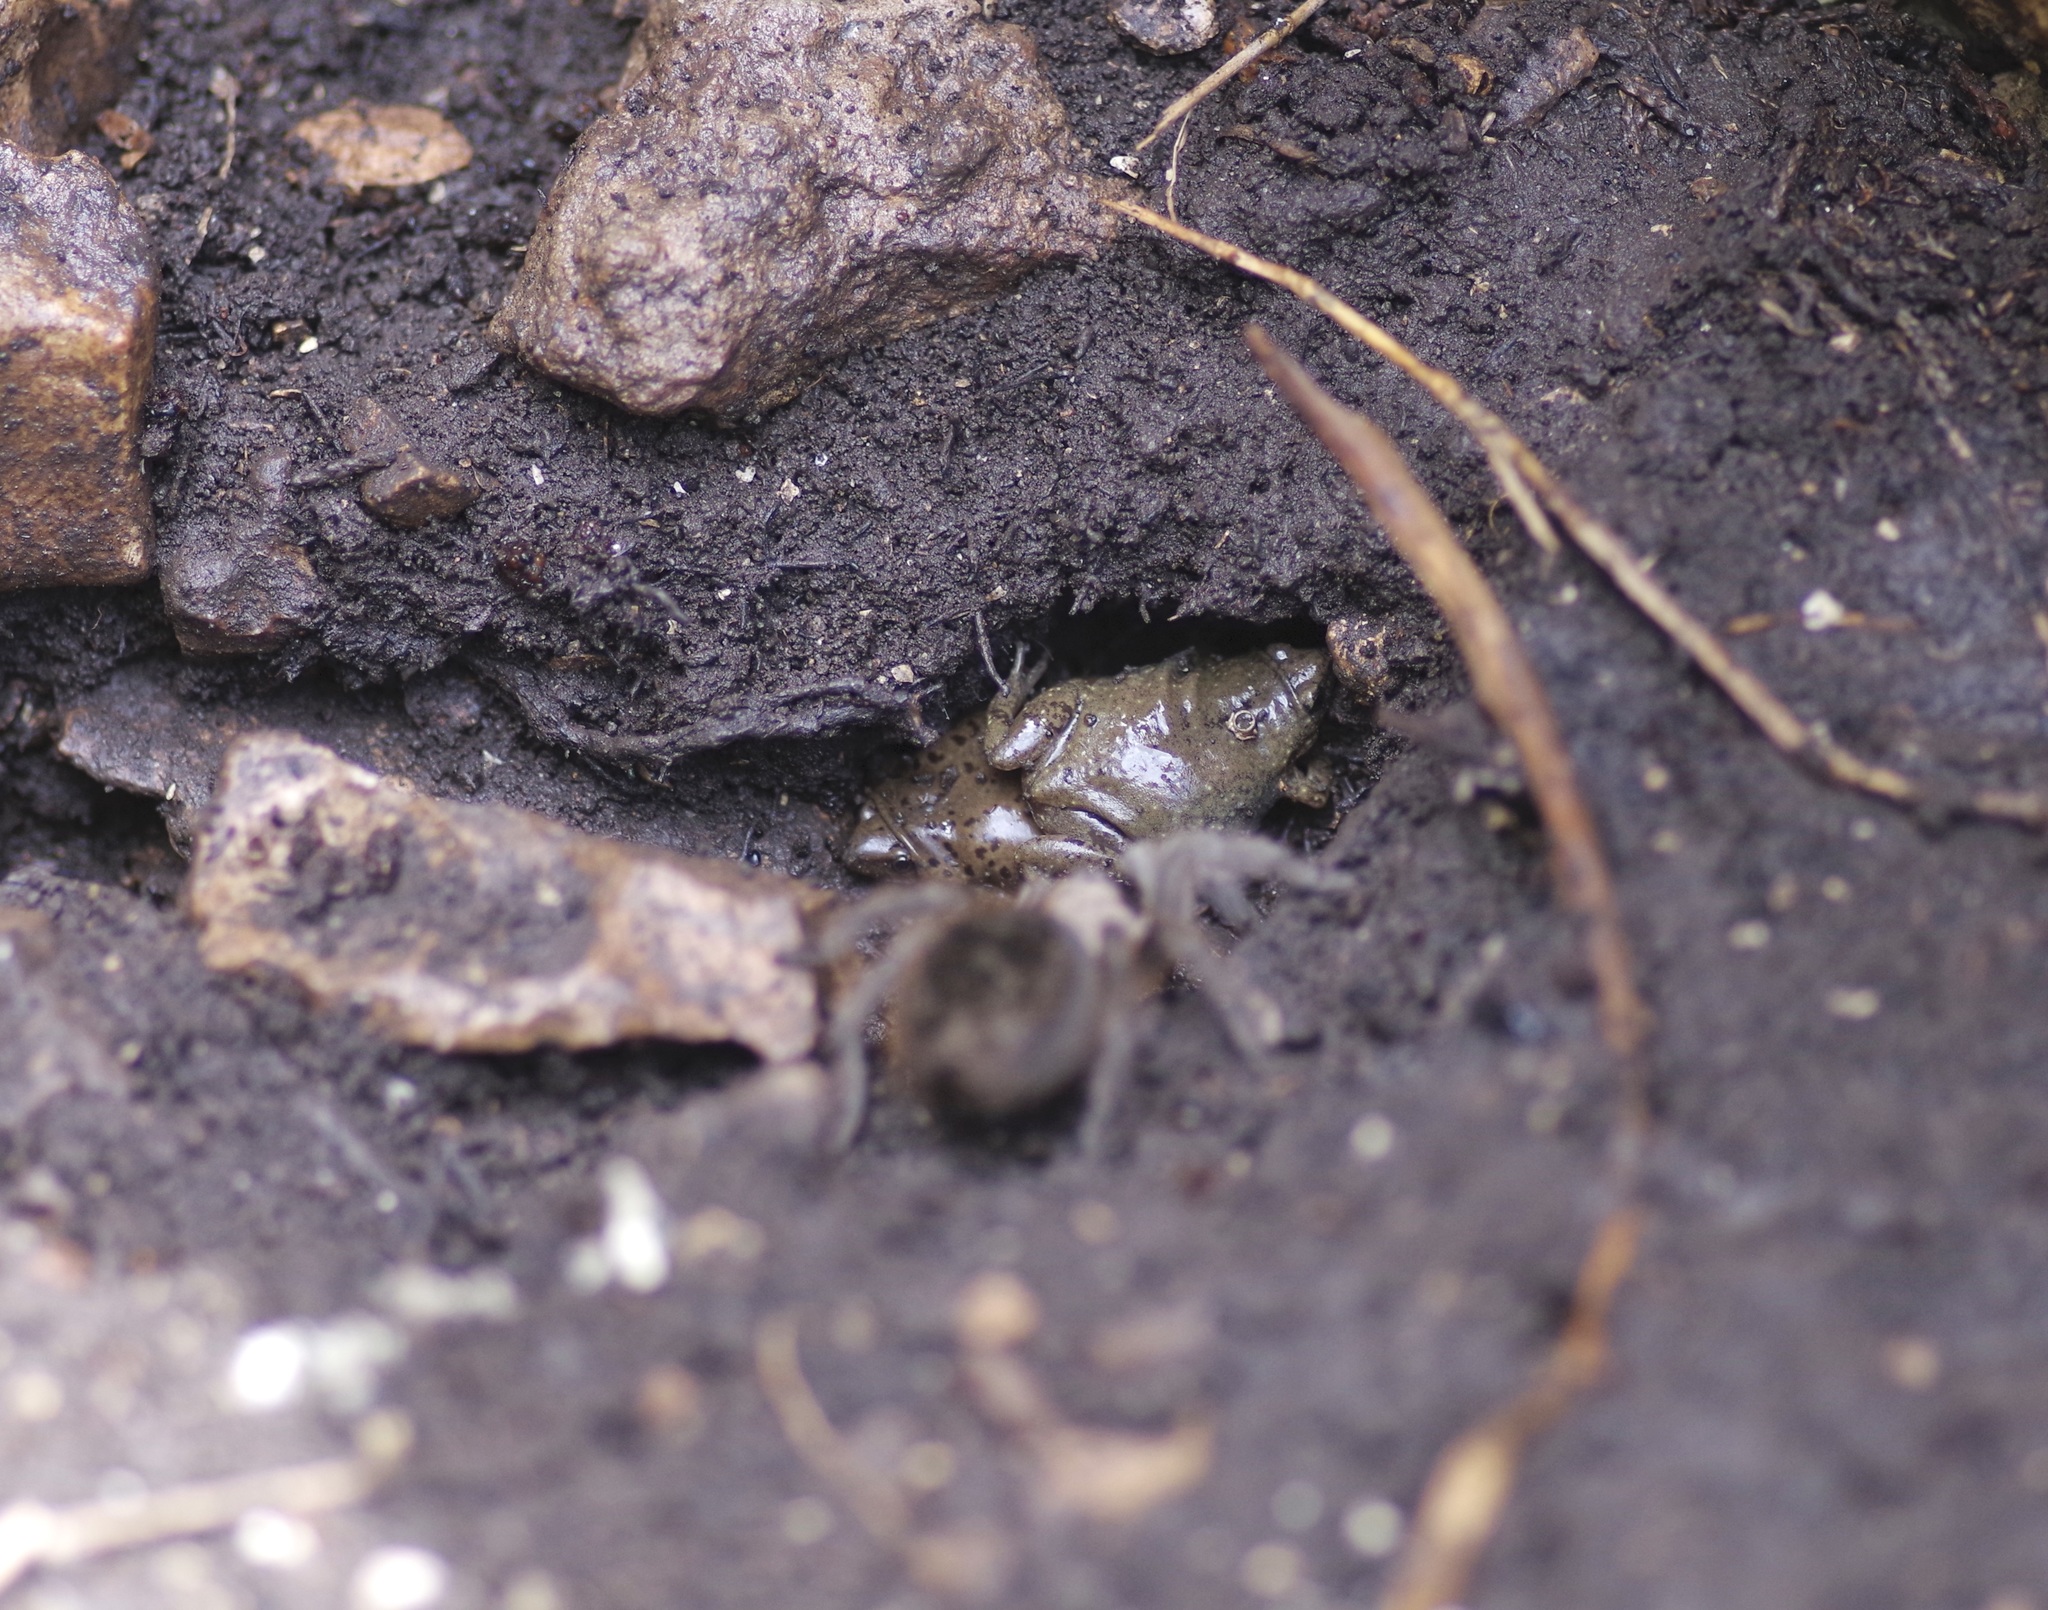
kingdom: Animalia
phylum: Chordata
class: Amphibia
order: Anura
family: Microhylidae
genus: Gastrophryne
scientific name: Gastrophryne olivacea
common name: Great plains narrow-mouthed toad
